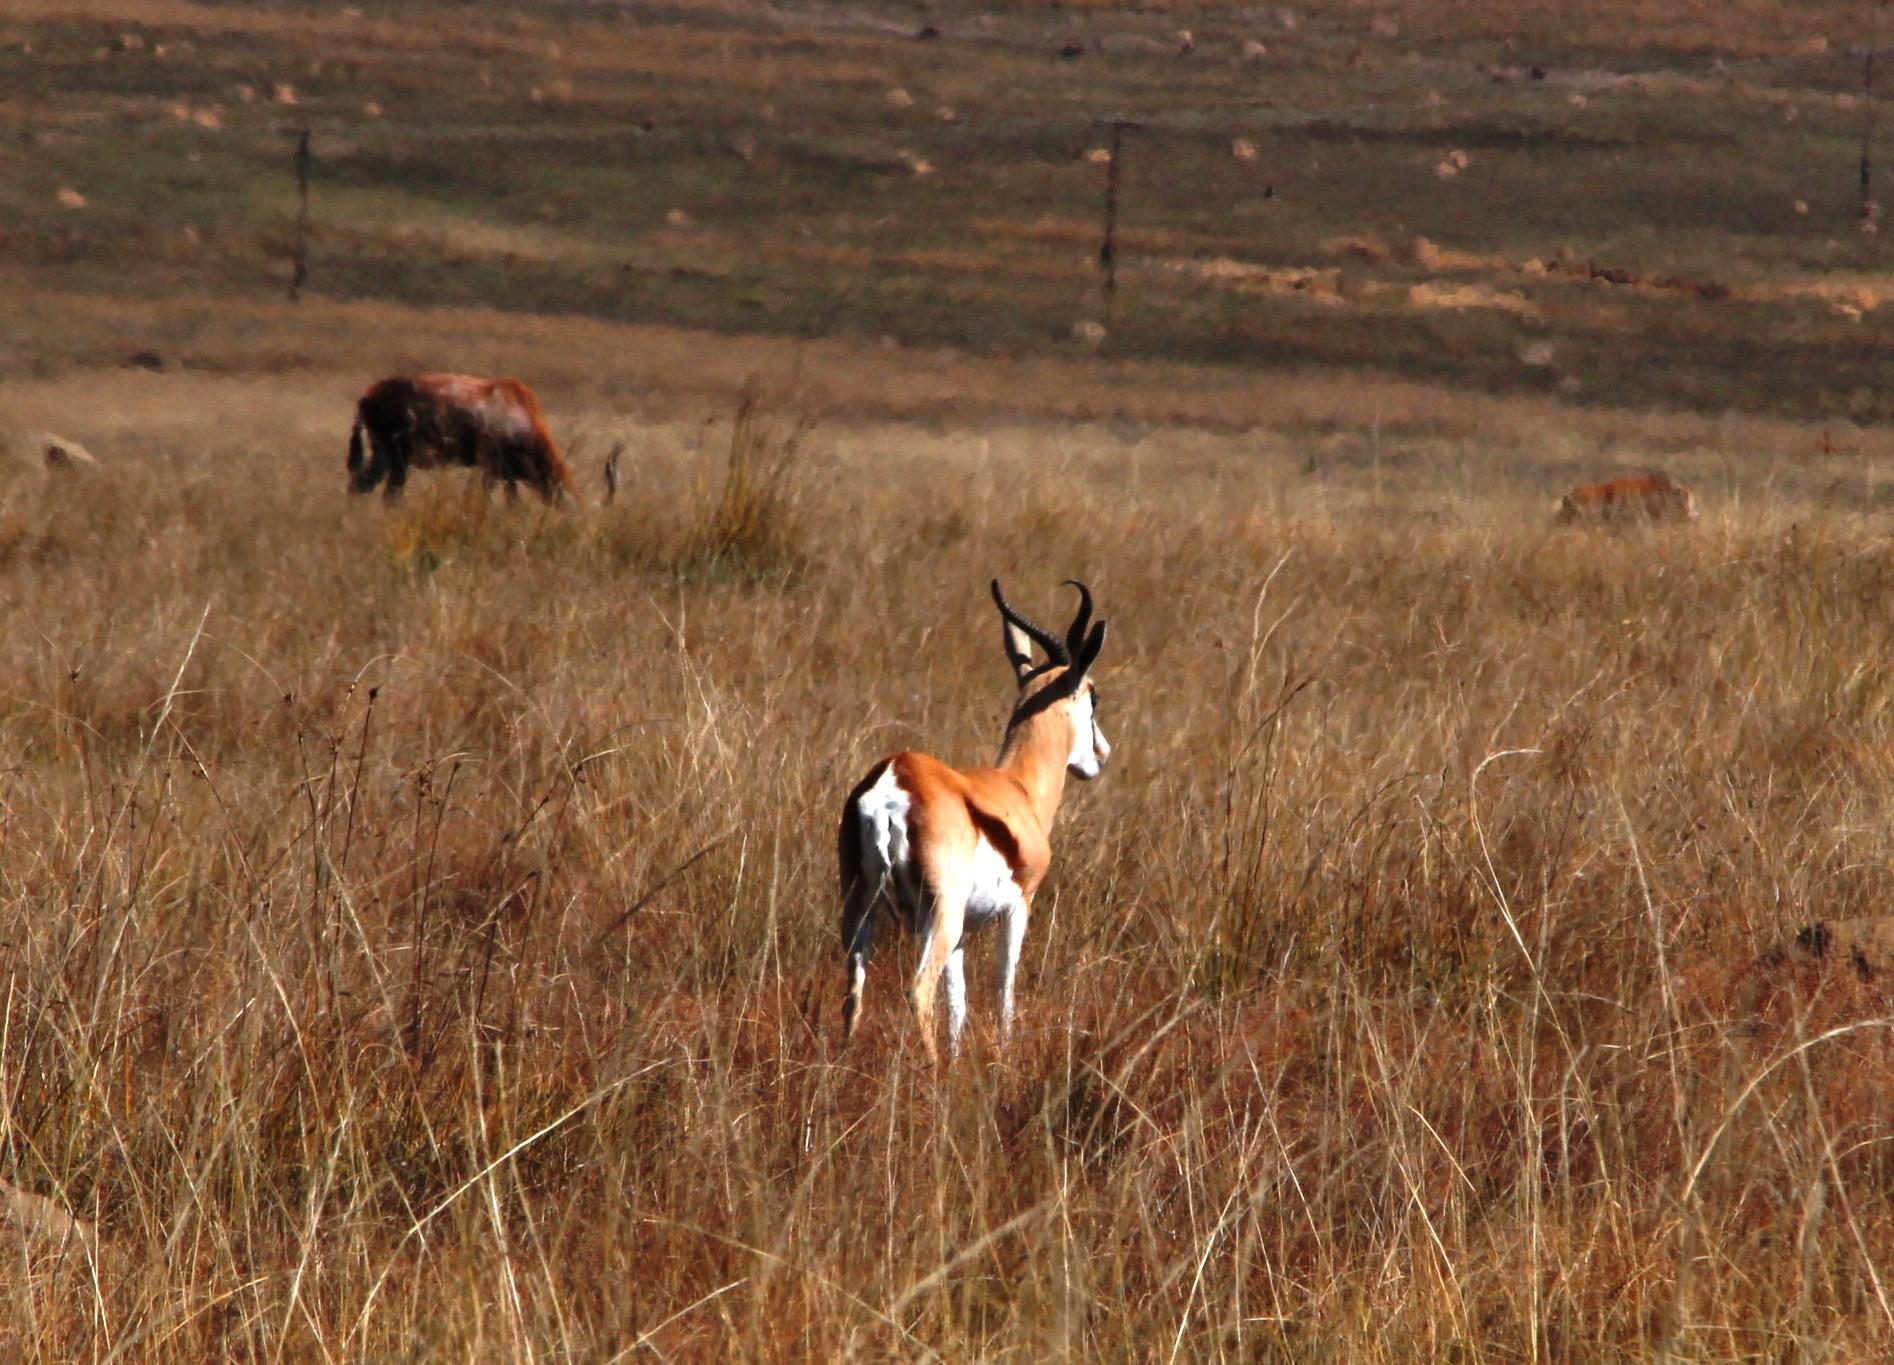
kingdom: Animalia
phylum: Chordata
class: Mammalia
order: Artiodactyla
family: Bovidae
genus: Antidorcas
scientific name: Antidorcas marsupialis
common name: Springbok
